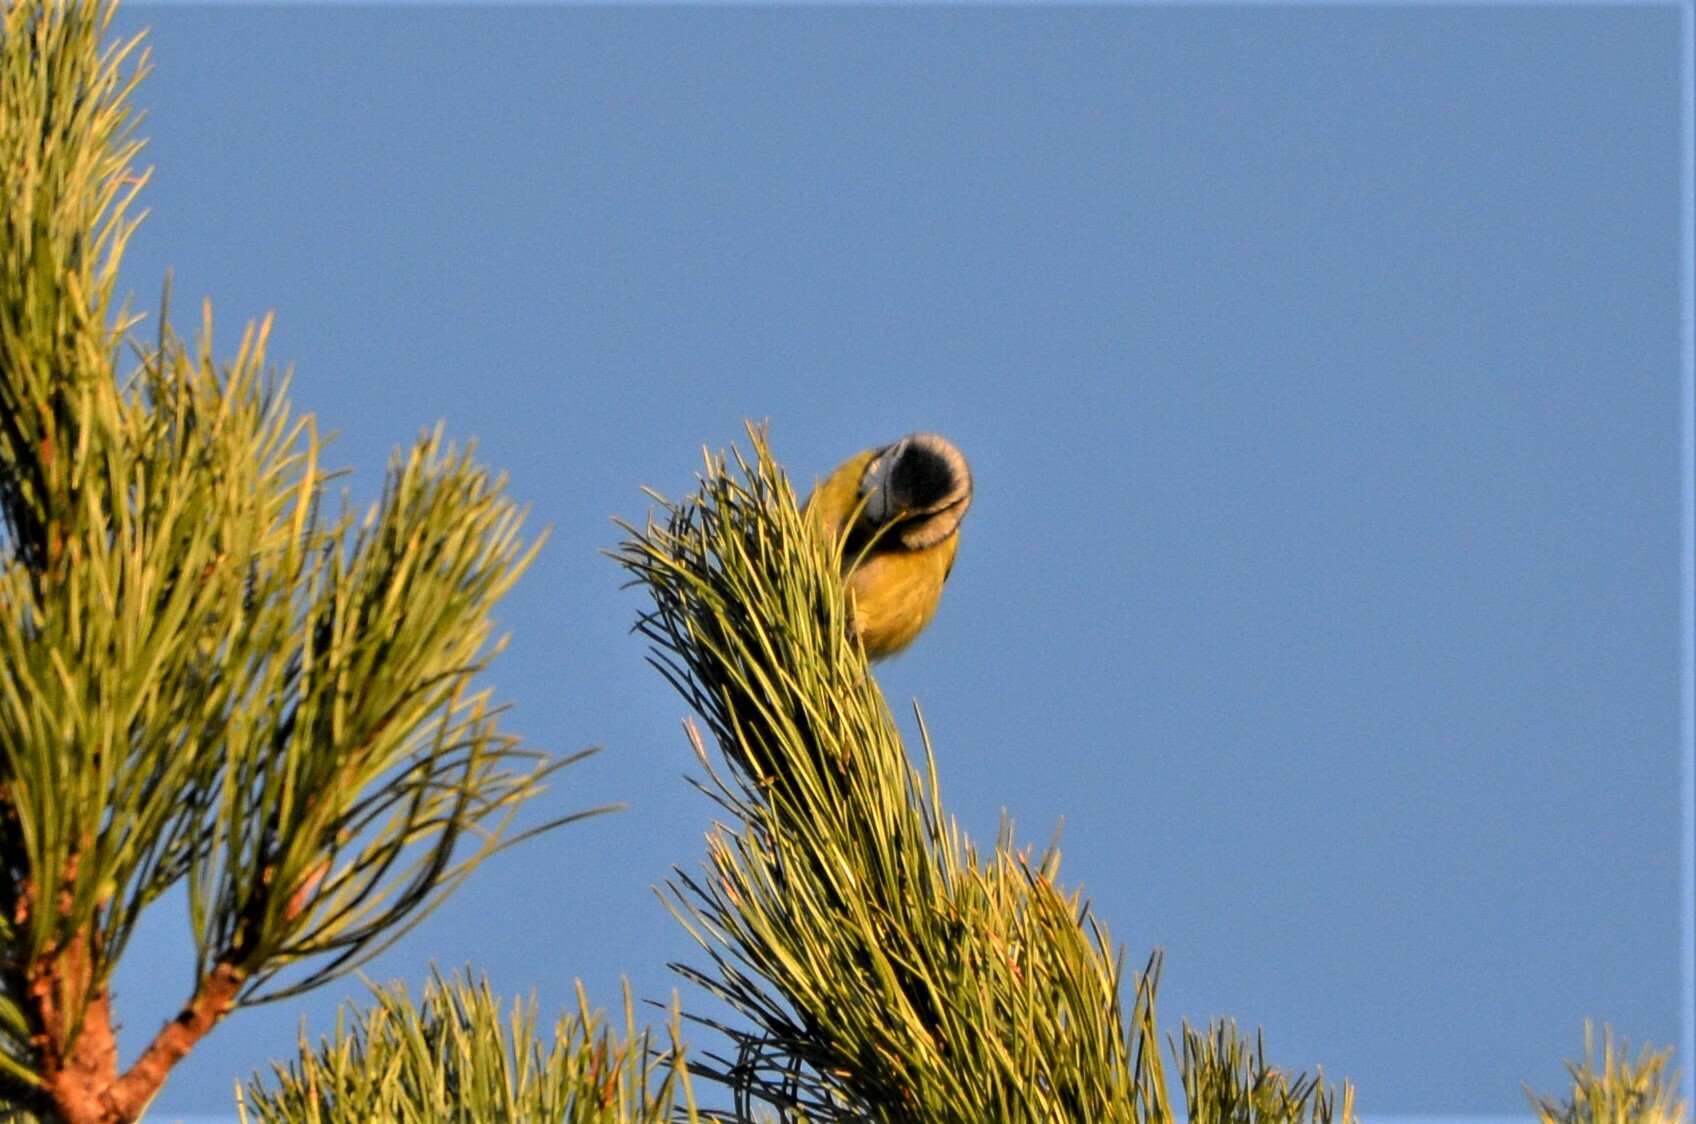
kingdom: Animalia
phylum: Chordata
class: Aves
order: Passeriformes
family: Paridae
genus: Cyanistes
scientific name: Cyanistes caeruleus
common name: Eurasian blue tit
